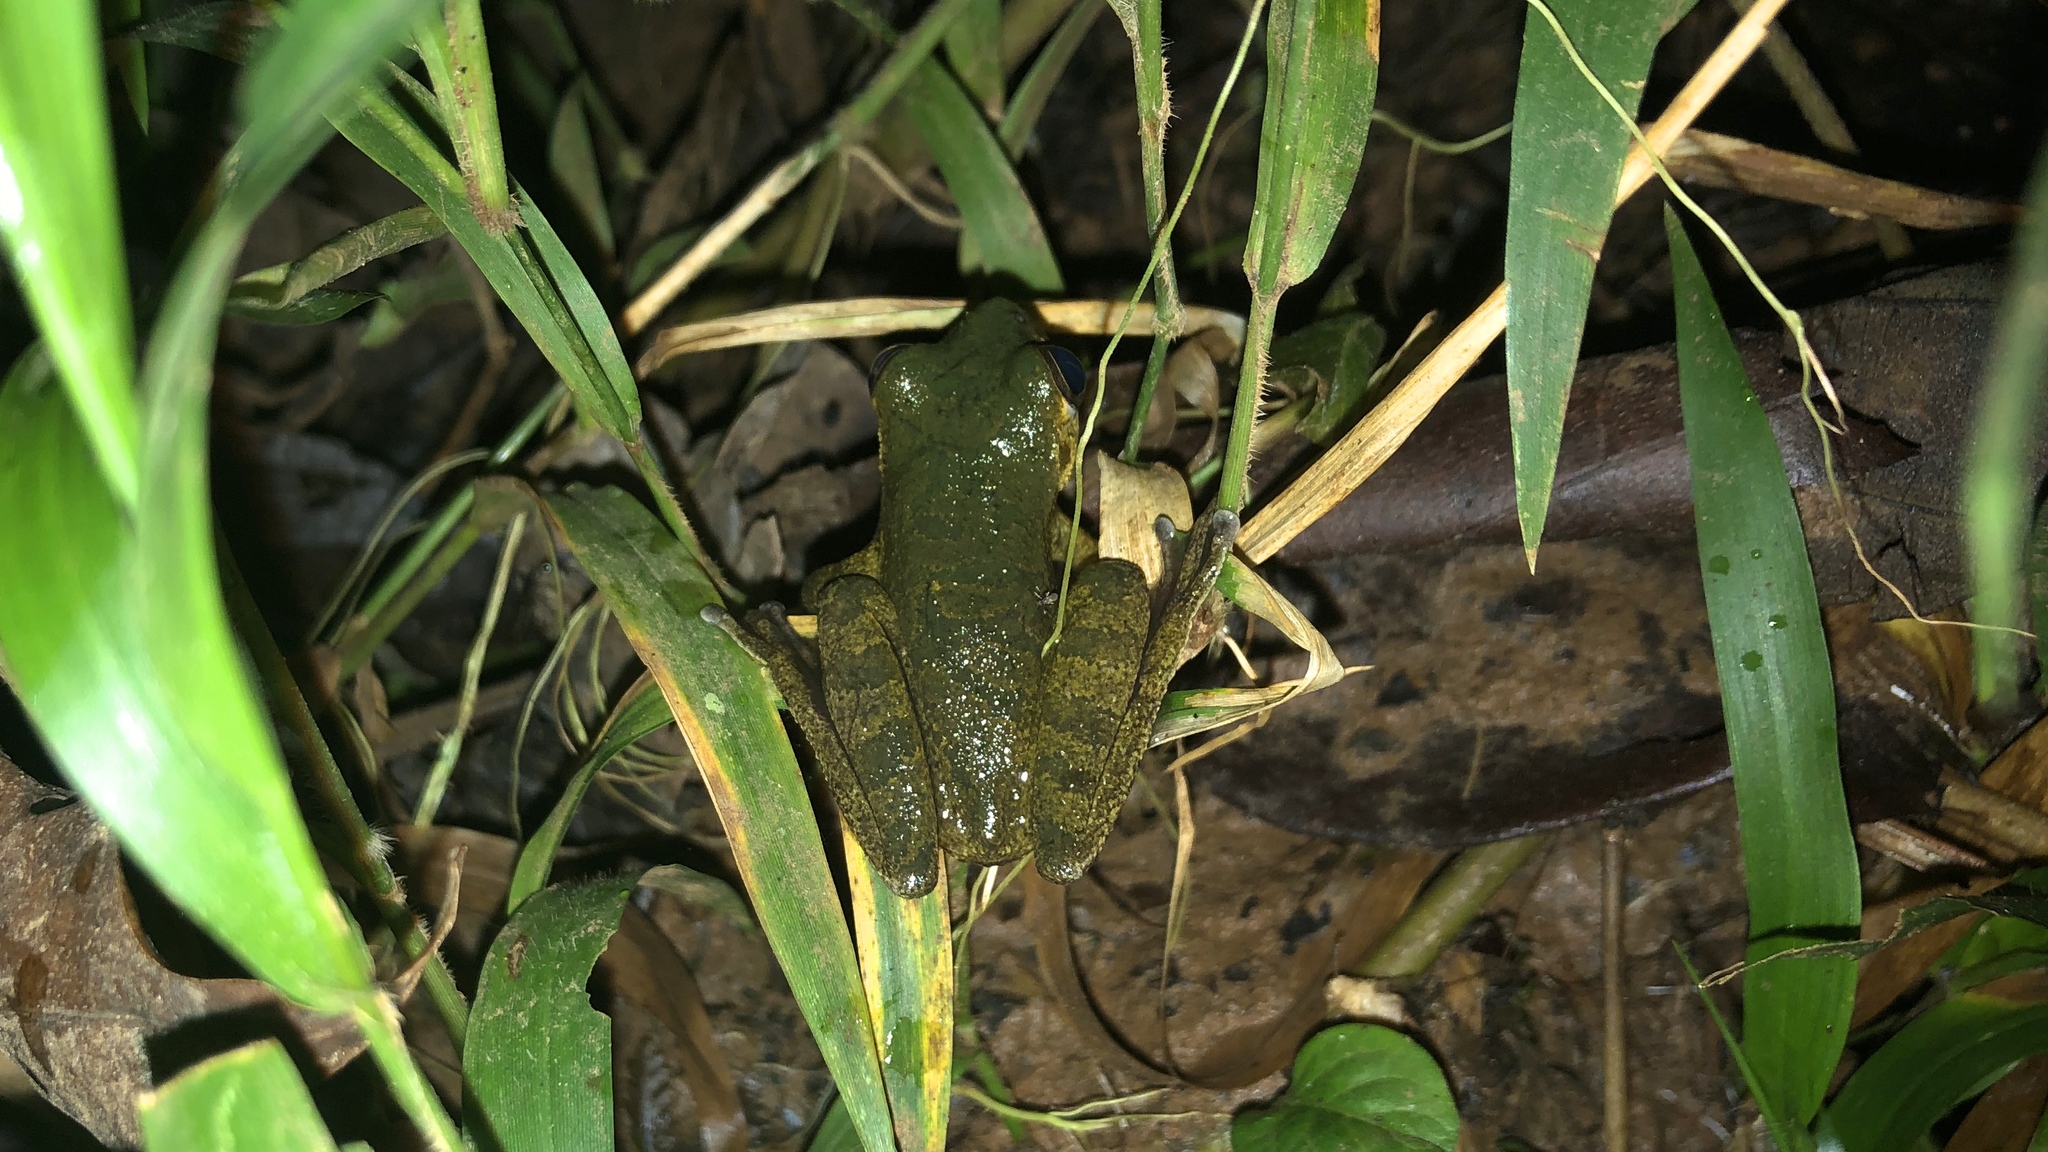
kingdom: Animalia
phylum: Chordata
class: Amphibia
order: Anura
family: Hylidae
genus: Smilisca
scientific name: Smilisca sordida
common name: Veragua cross-banded treefrog
